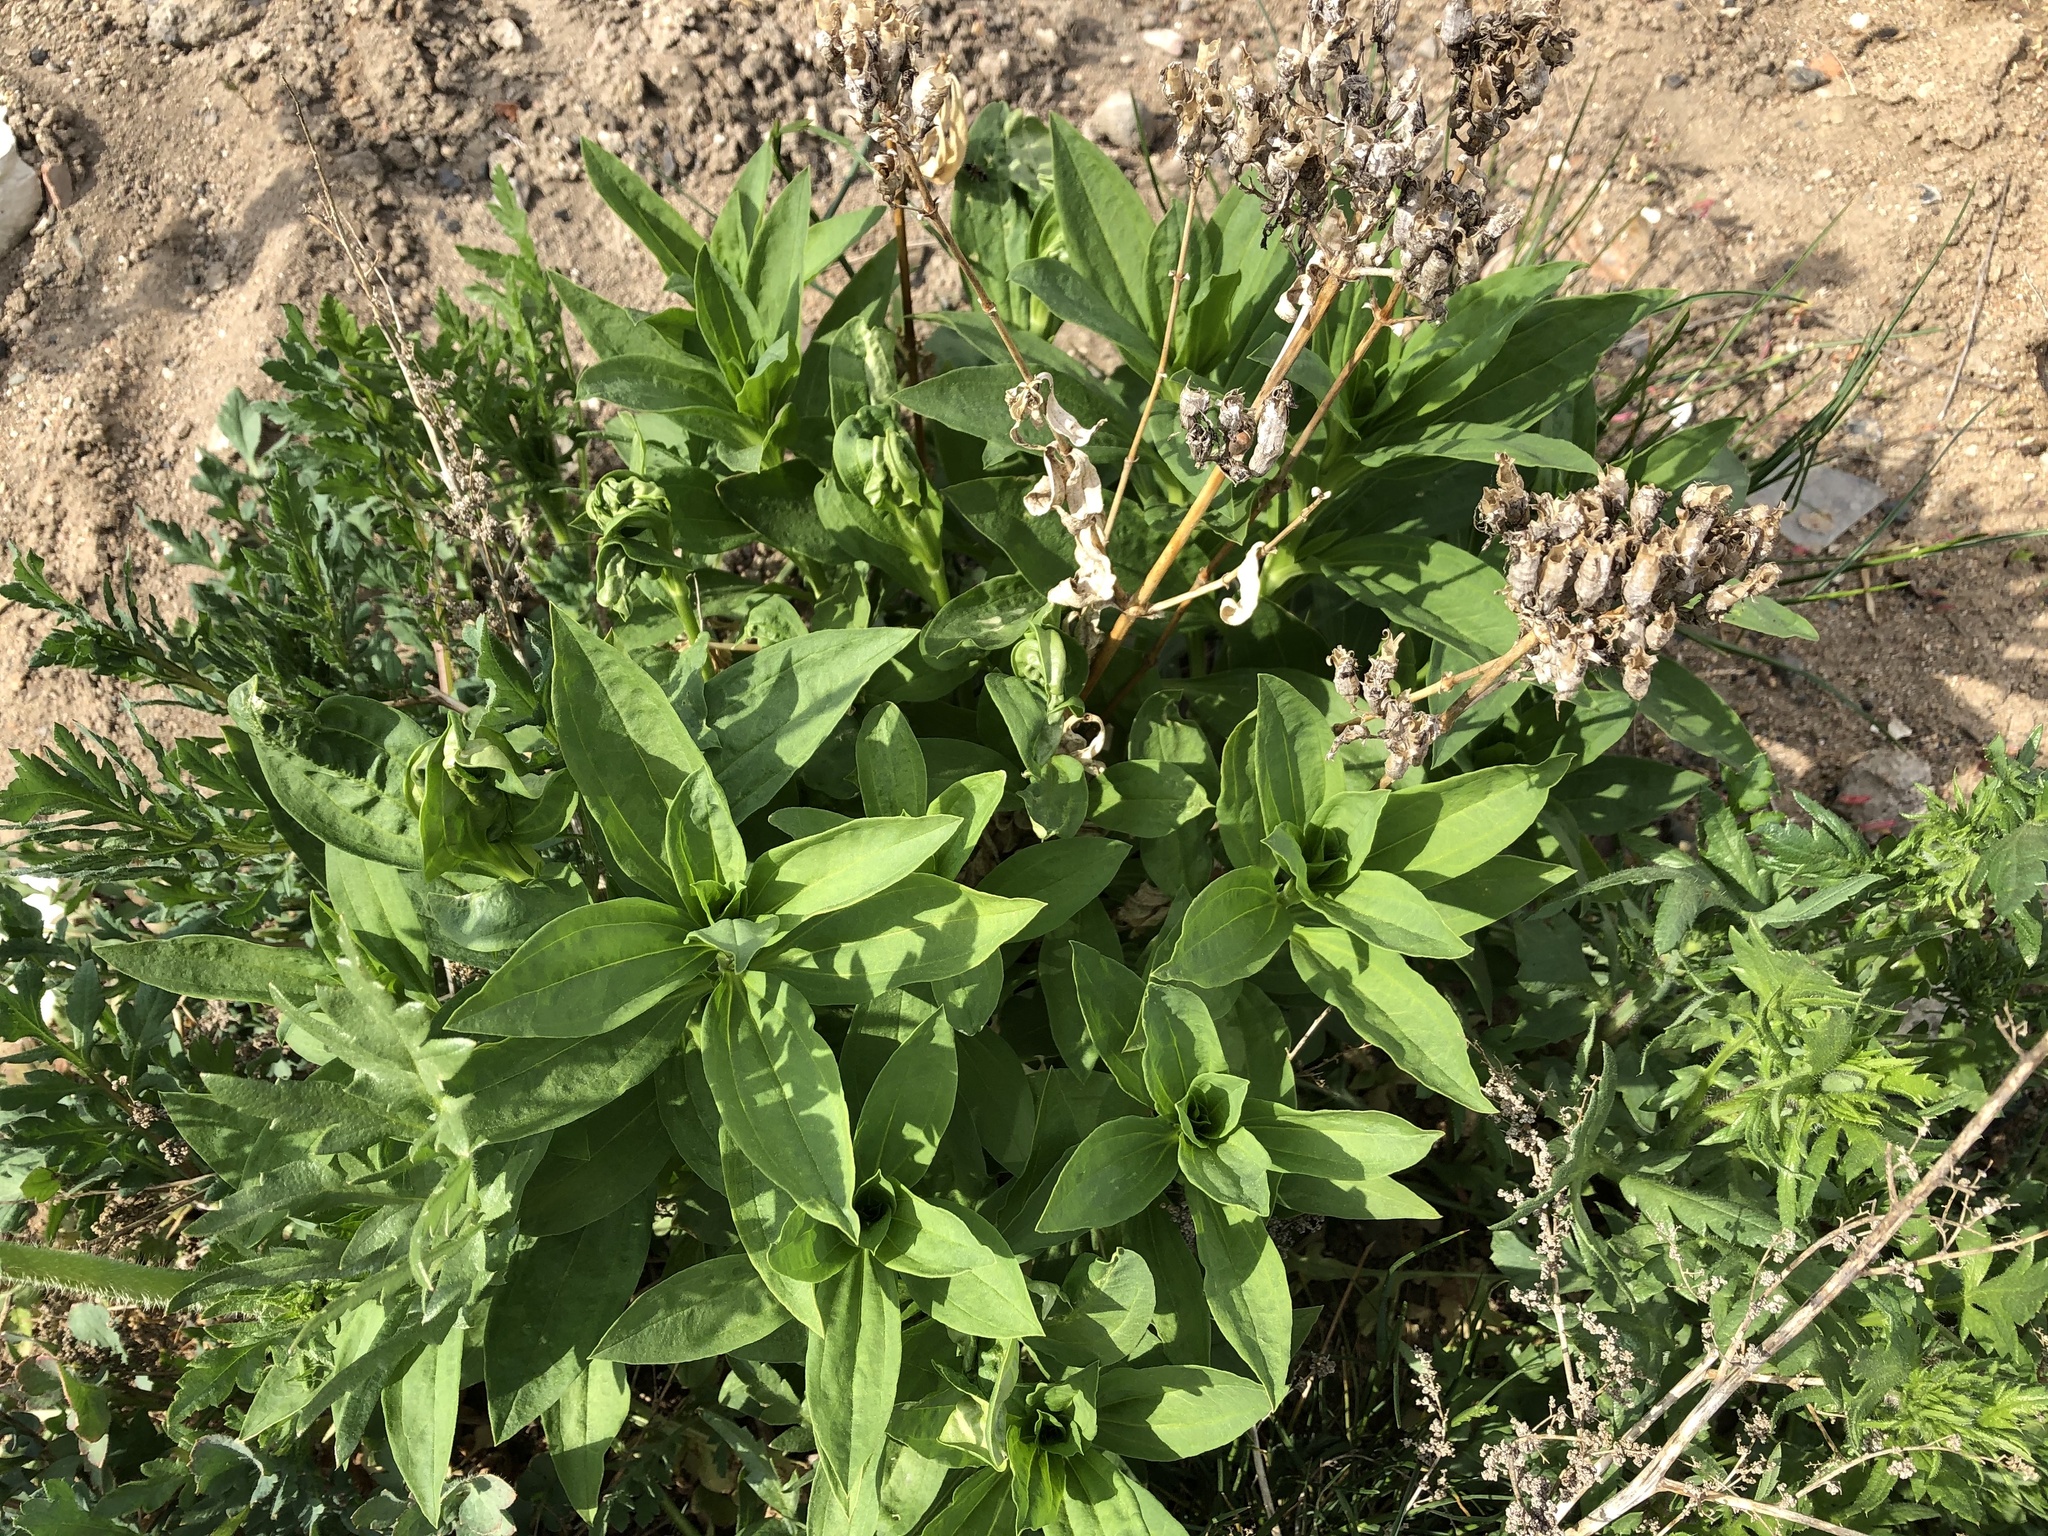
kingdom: Plantae
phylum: Tracheophyta
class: Magnoliopsida
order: Caryophyllales
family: Caryophyllaceae
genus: Saponaria
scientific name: Saponaria officinalis
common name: Soapwort
